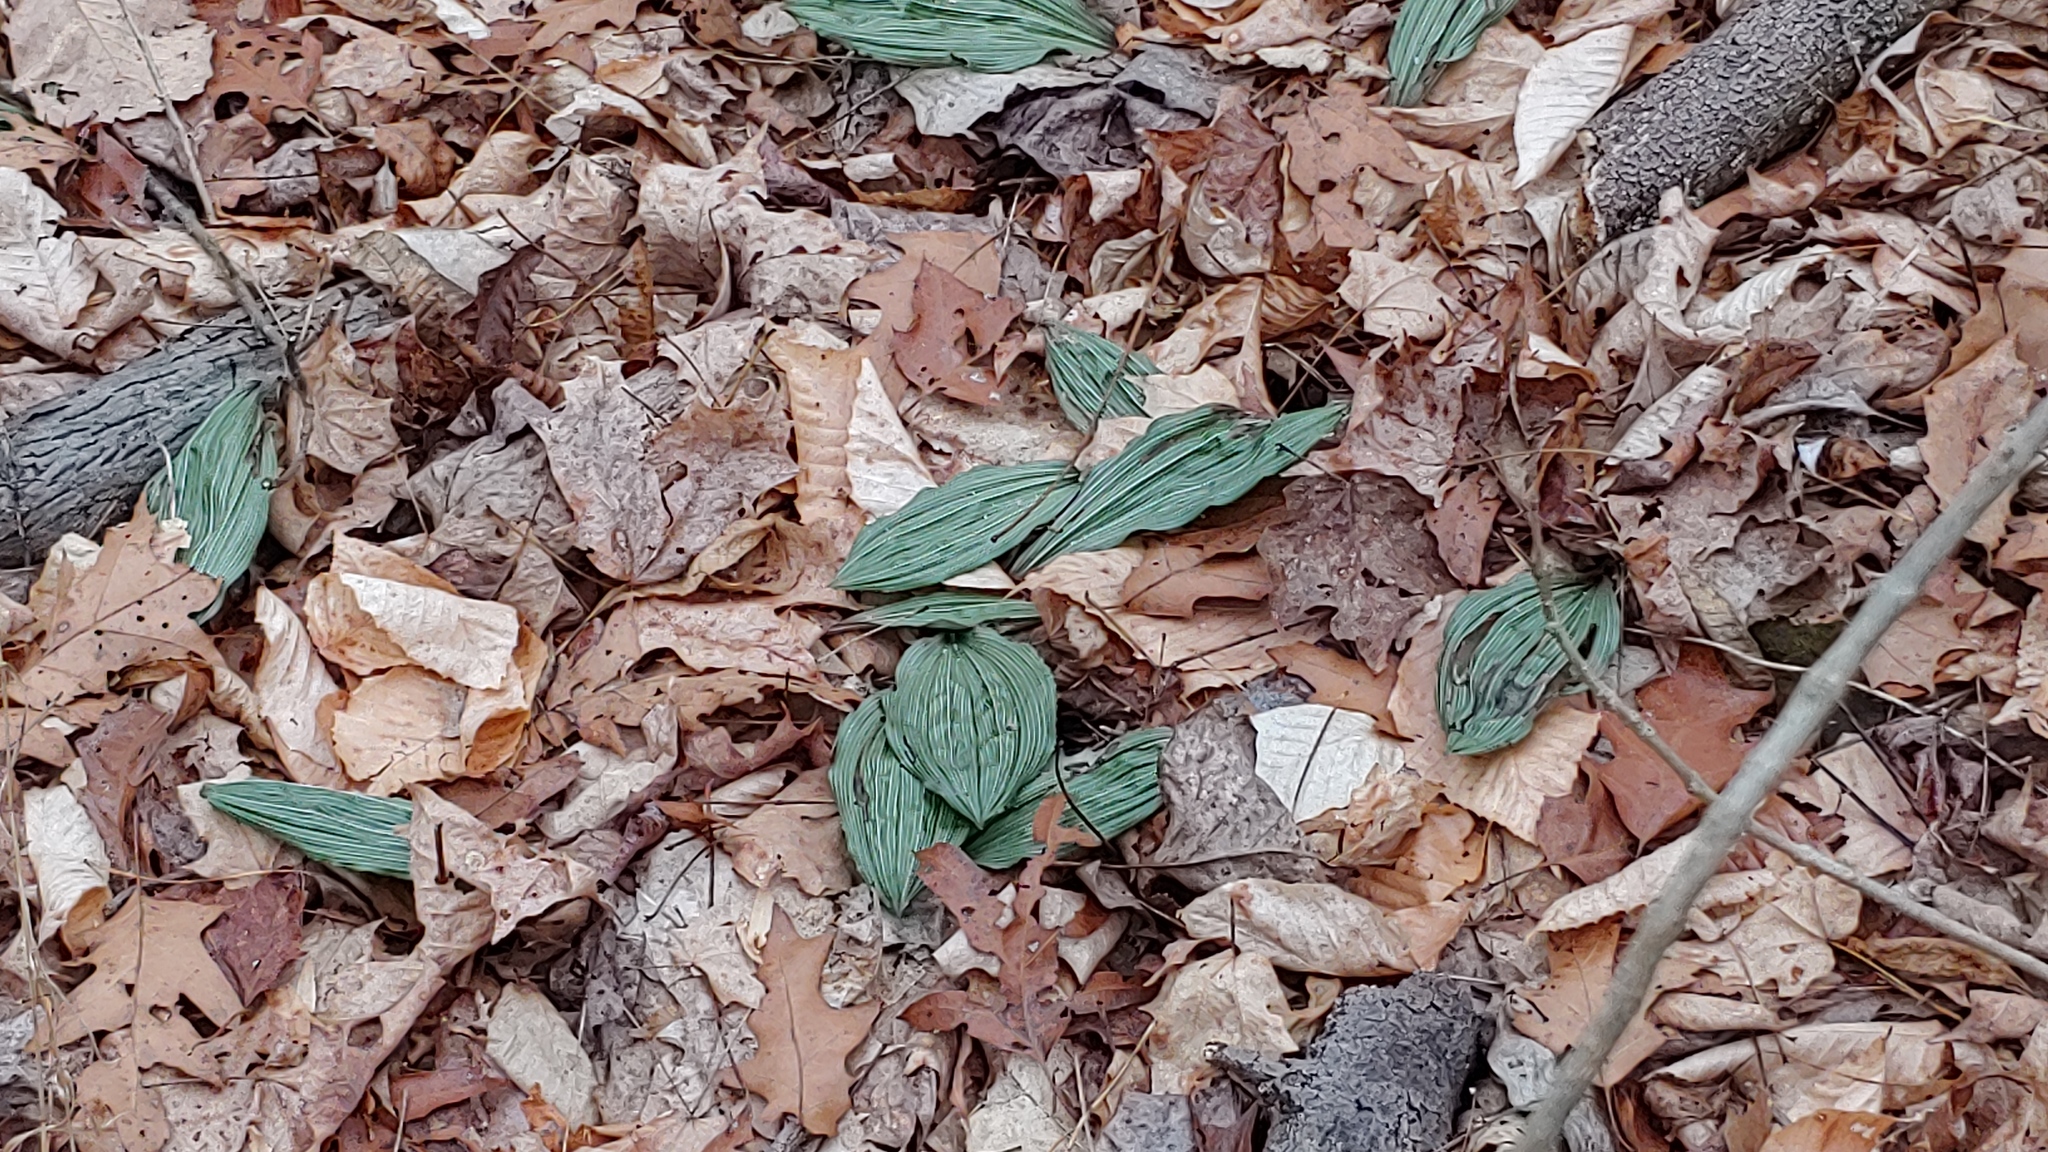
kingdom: Plantae
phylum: Tracheophyta
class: Liliopsida
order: Asparagales
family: Orchidaceae
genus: Aplectrum
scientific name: Aplectrum hyemale
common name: Adam-and-eve
